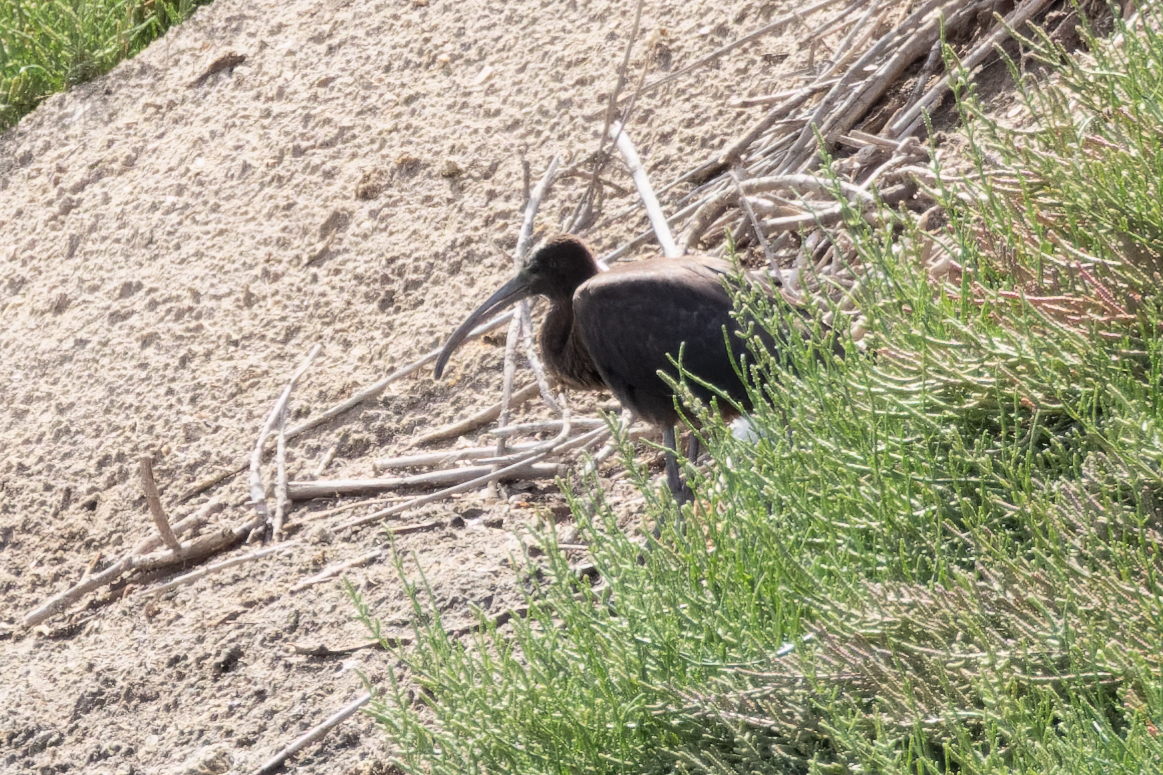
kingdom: Animalia
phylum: Chordata
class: Aves
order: Pelecaniformes
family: Threskiornithidae
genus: Plegadis
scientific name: Plegadis falcinellus
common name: Glossy ibis
